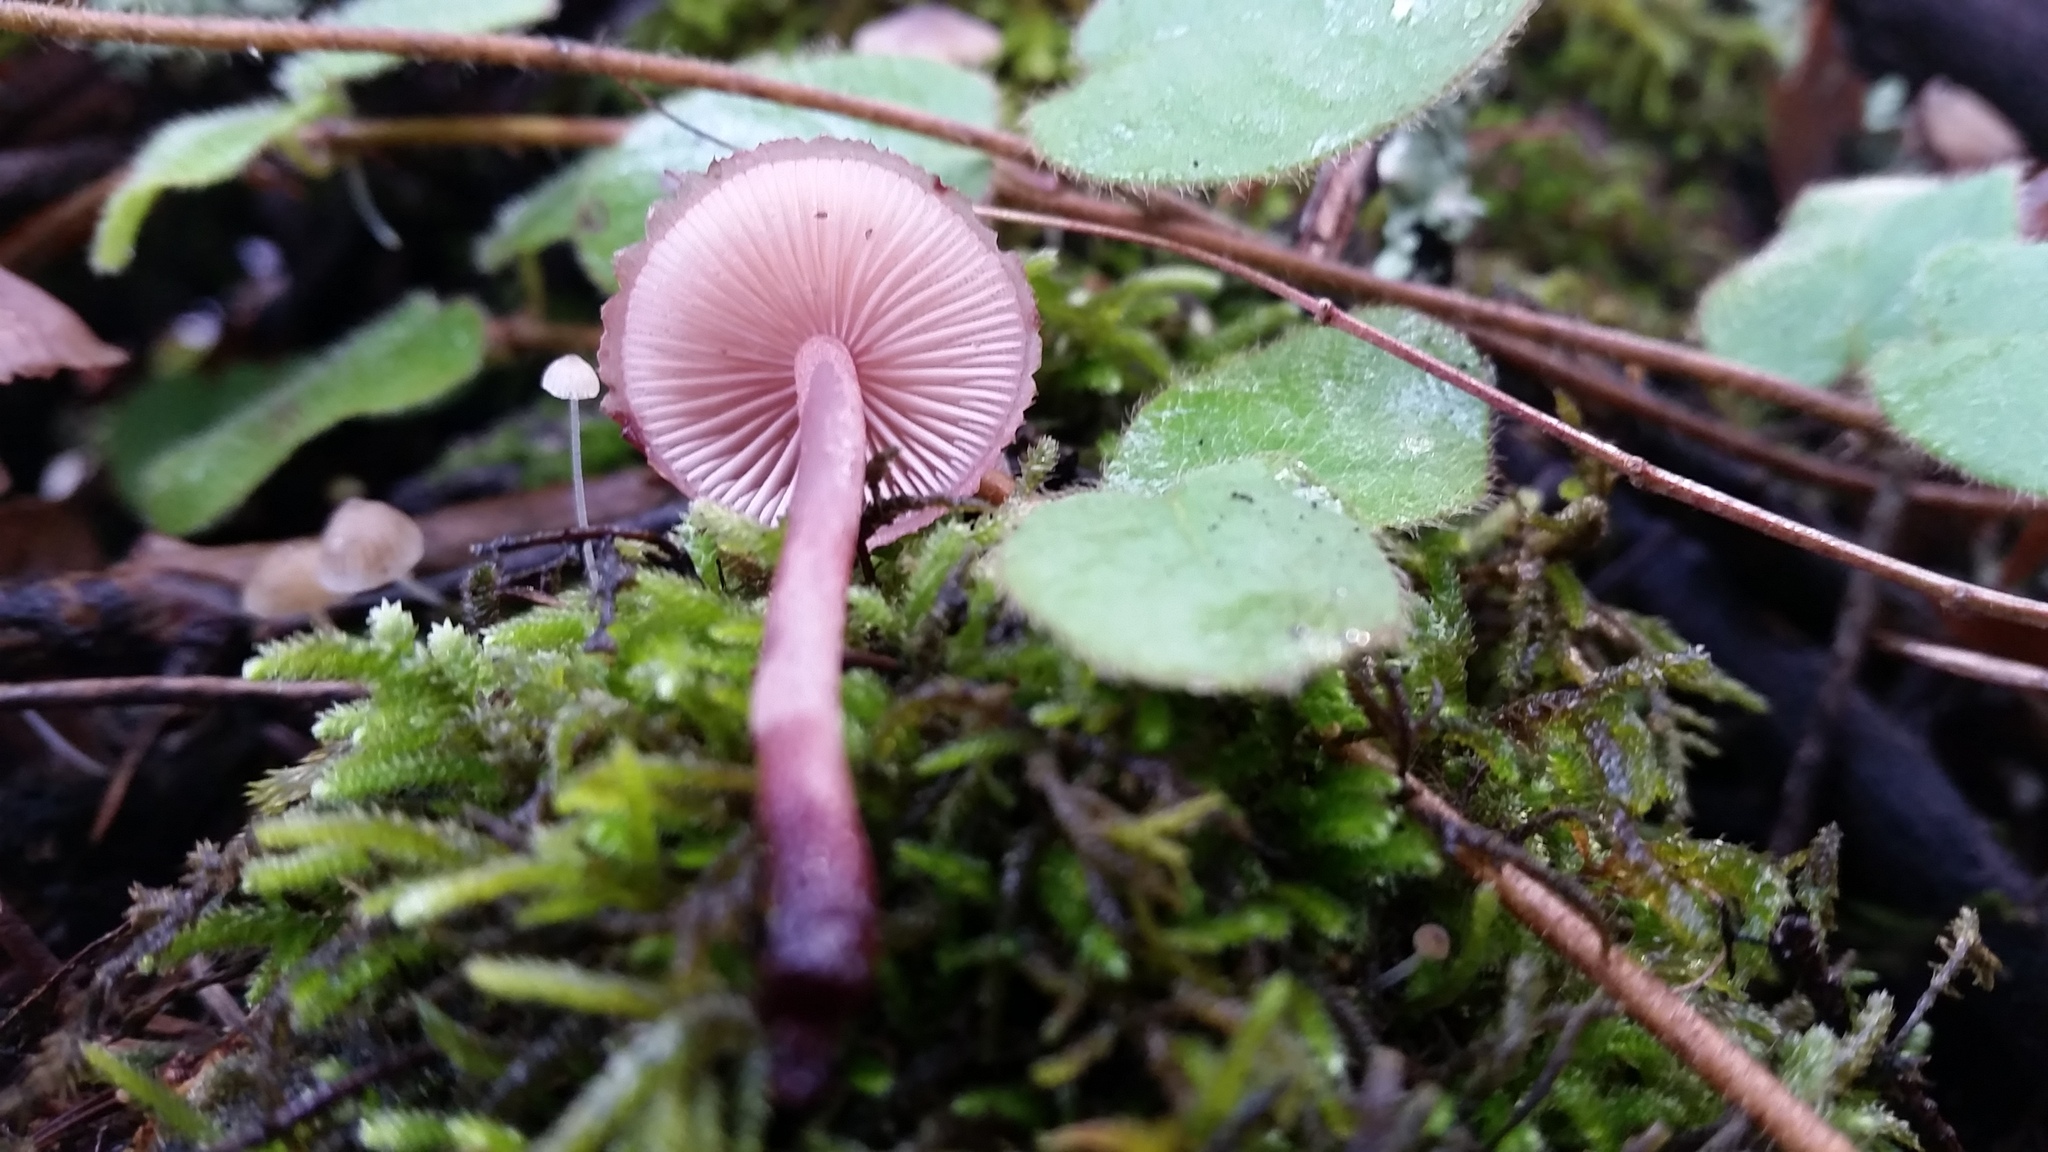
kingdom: Fungi
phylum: Basidiomycota
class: Agaricomycetes
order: Agaricales
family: Mycenaceae
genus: Mycena
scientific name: Mycena haematopus
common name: Burgundydrop bonnet
